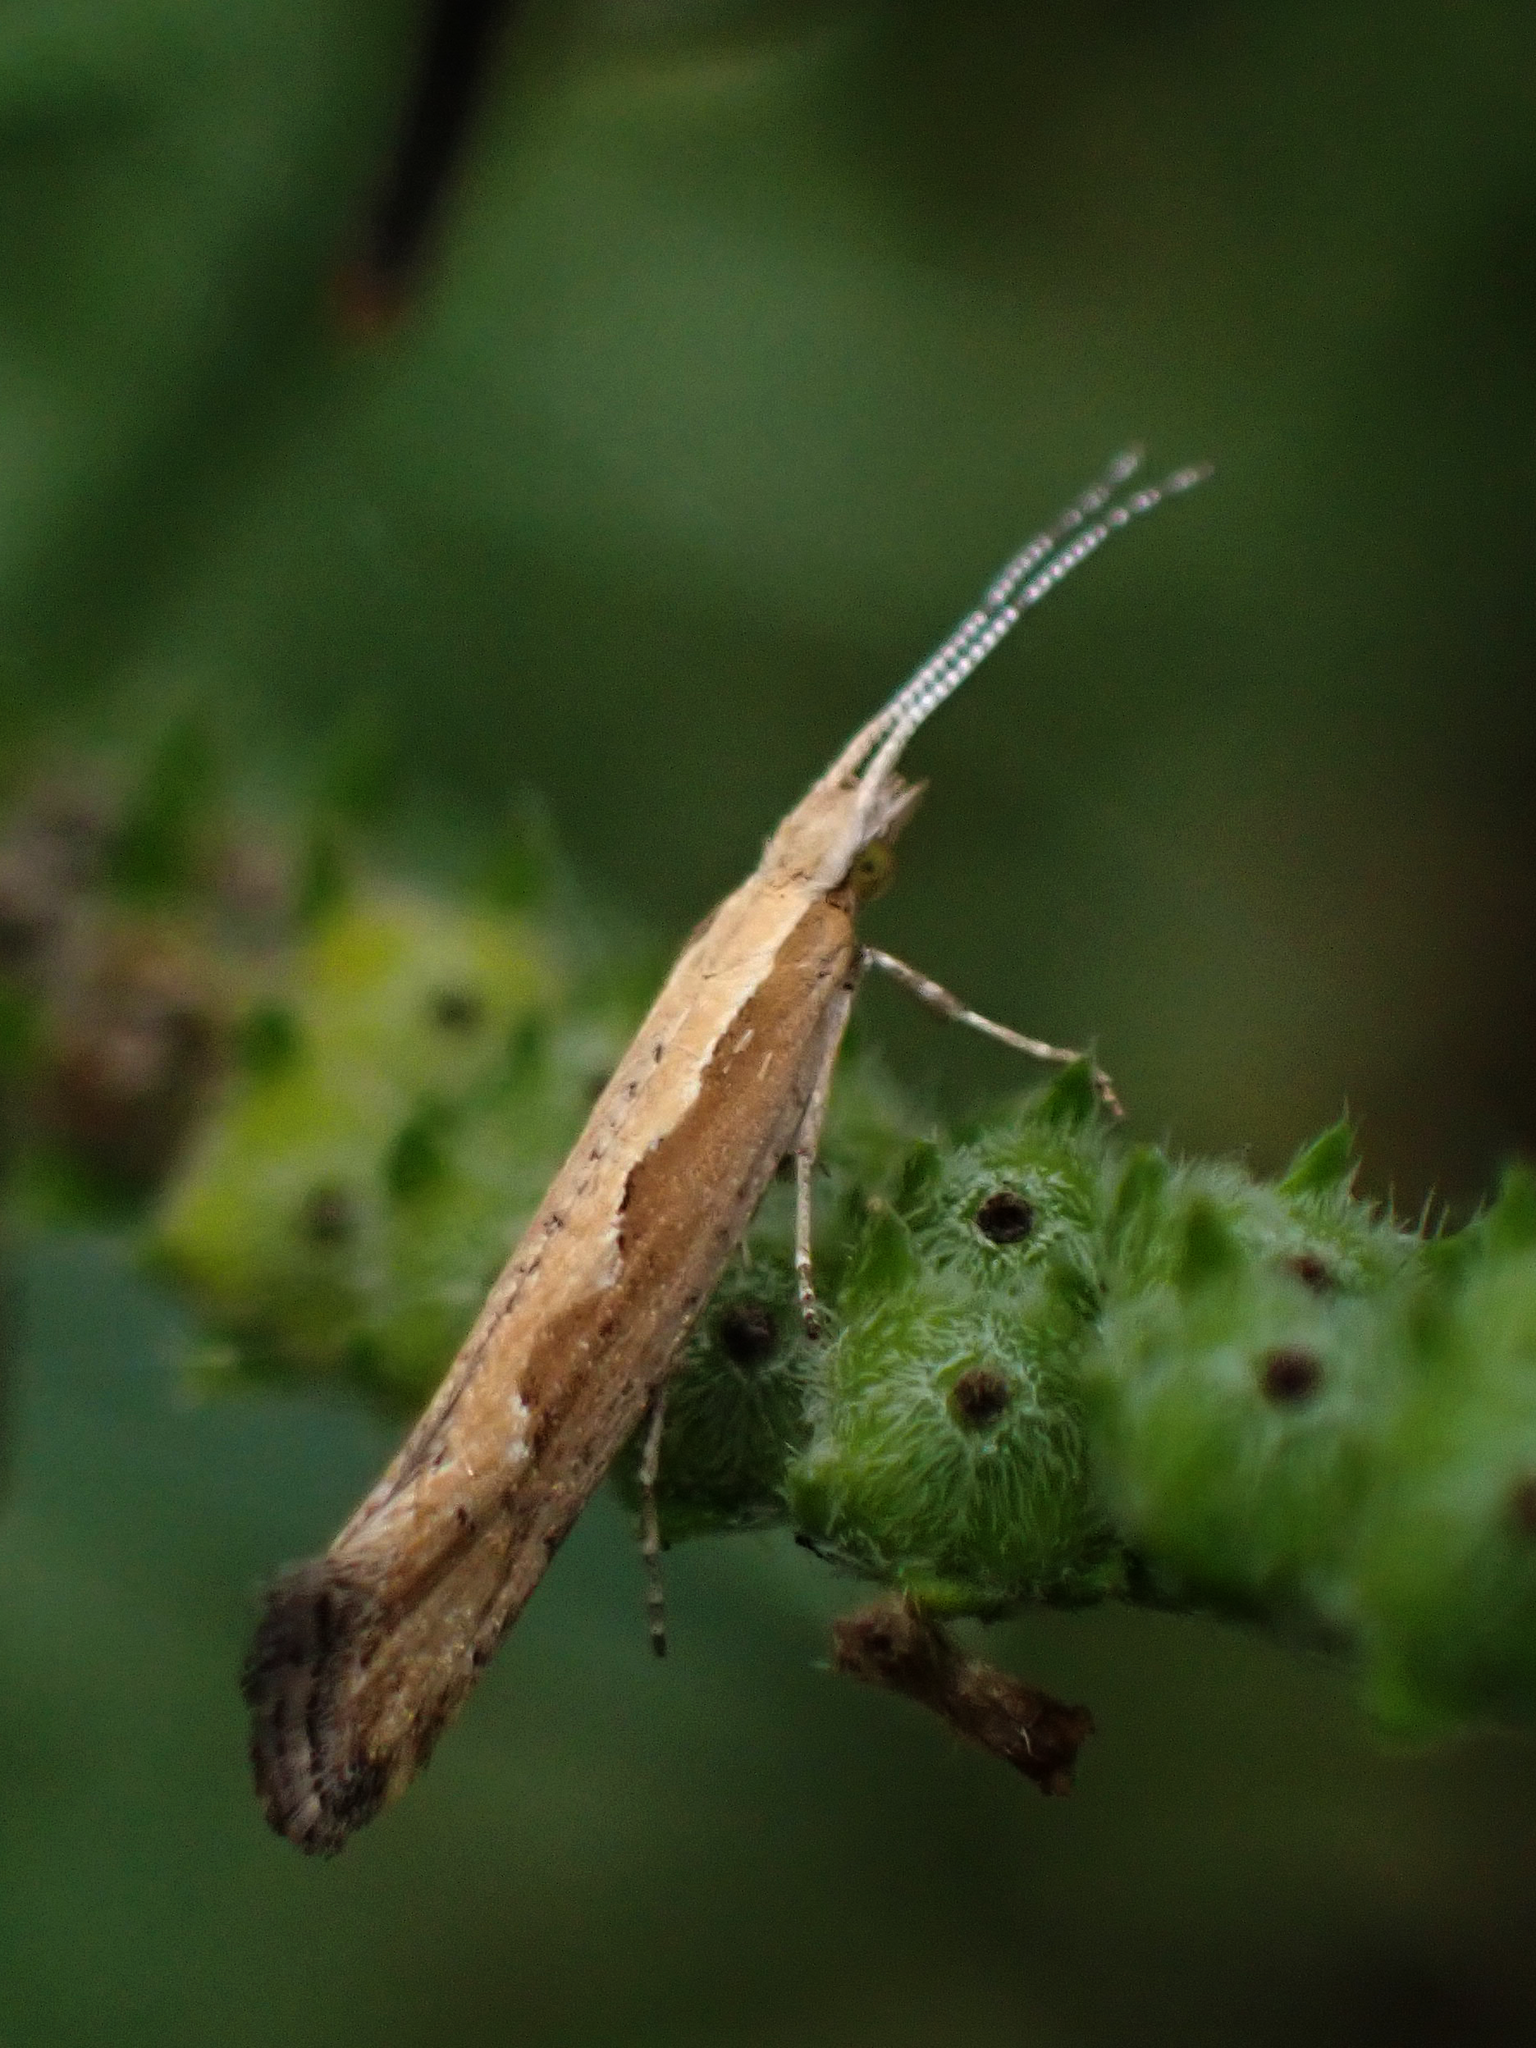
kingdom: Animalia
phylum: Arthropoda
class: Insecta
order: Lepidoptera
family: Plutellidae
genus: Plutella
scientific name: Plutella xylostella
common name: Diamond-back moth
